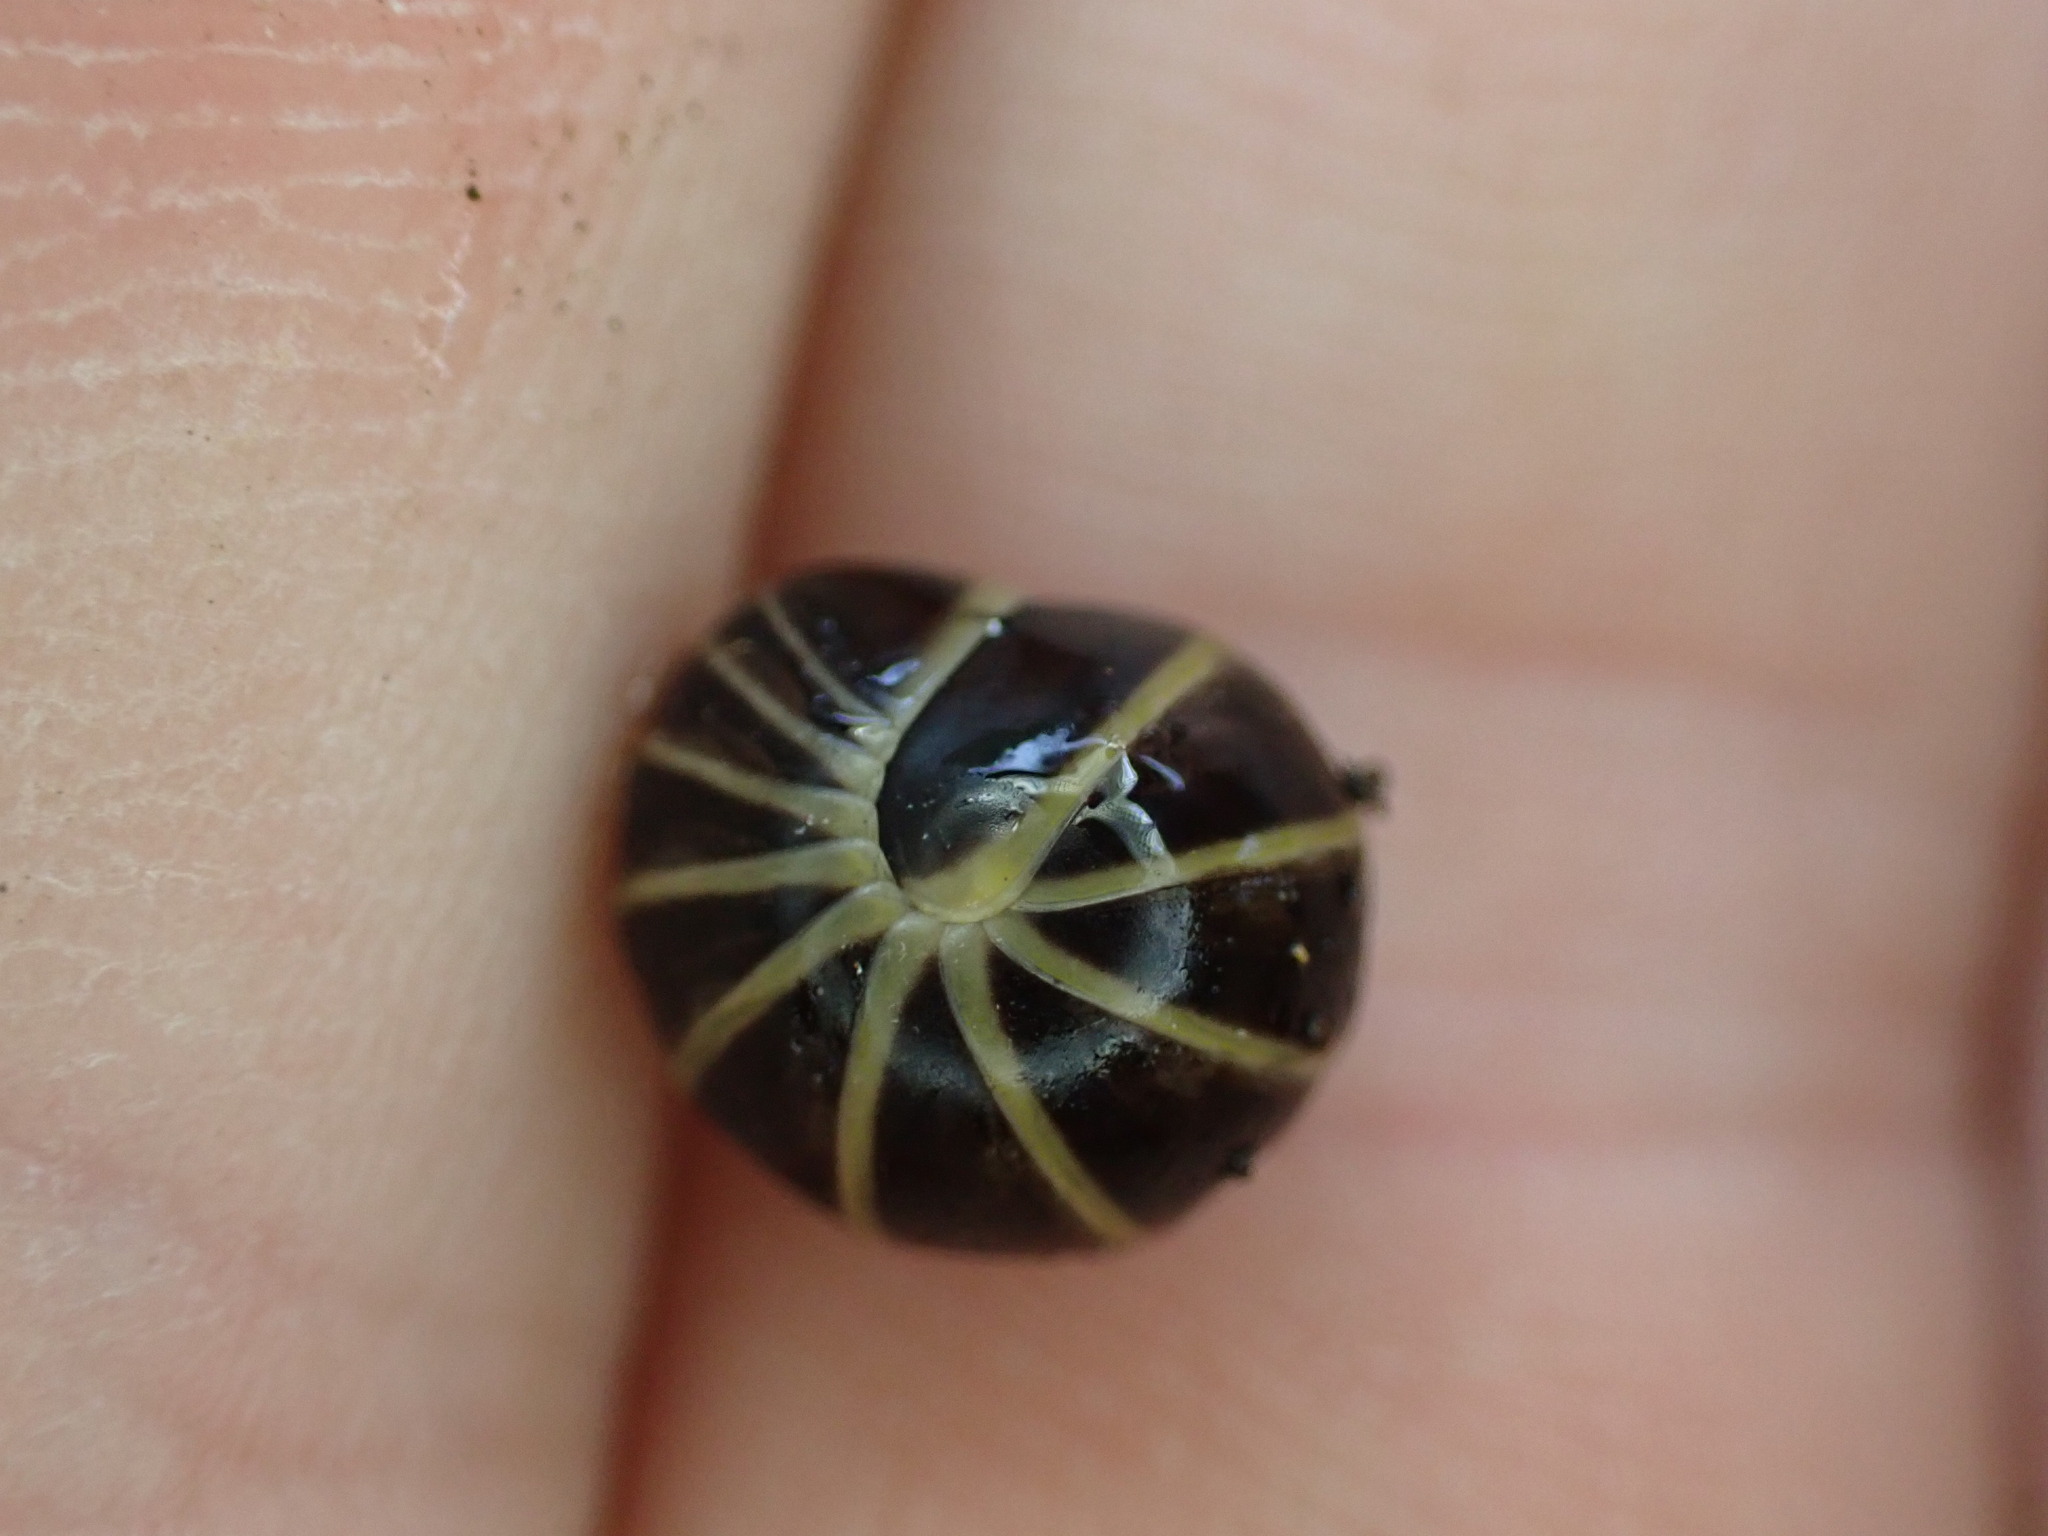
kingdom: Animalia
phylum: Arthropoda
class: Diplopoda
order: Glomerida
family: Glomeridae
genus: Glomeris
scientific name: Glomeris marginata
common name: Bordered pill millipede
